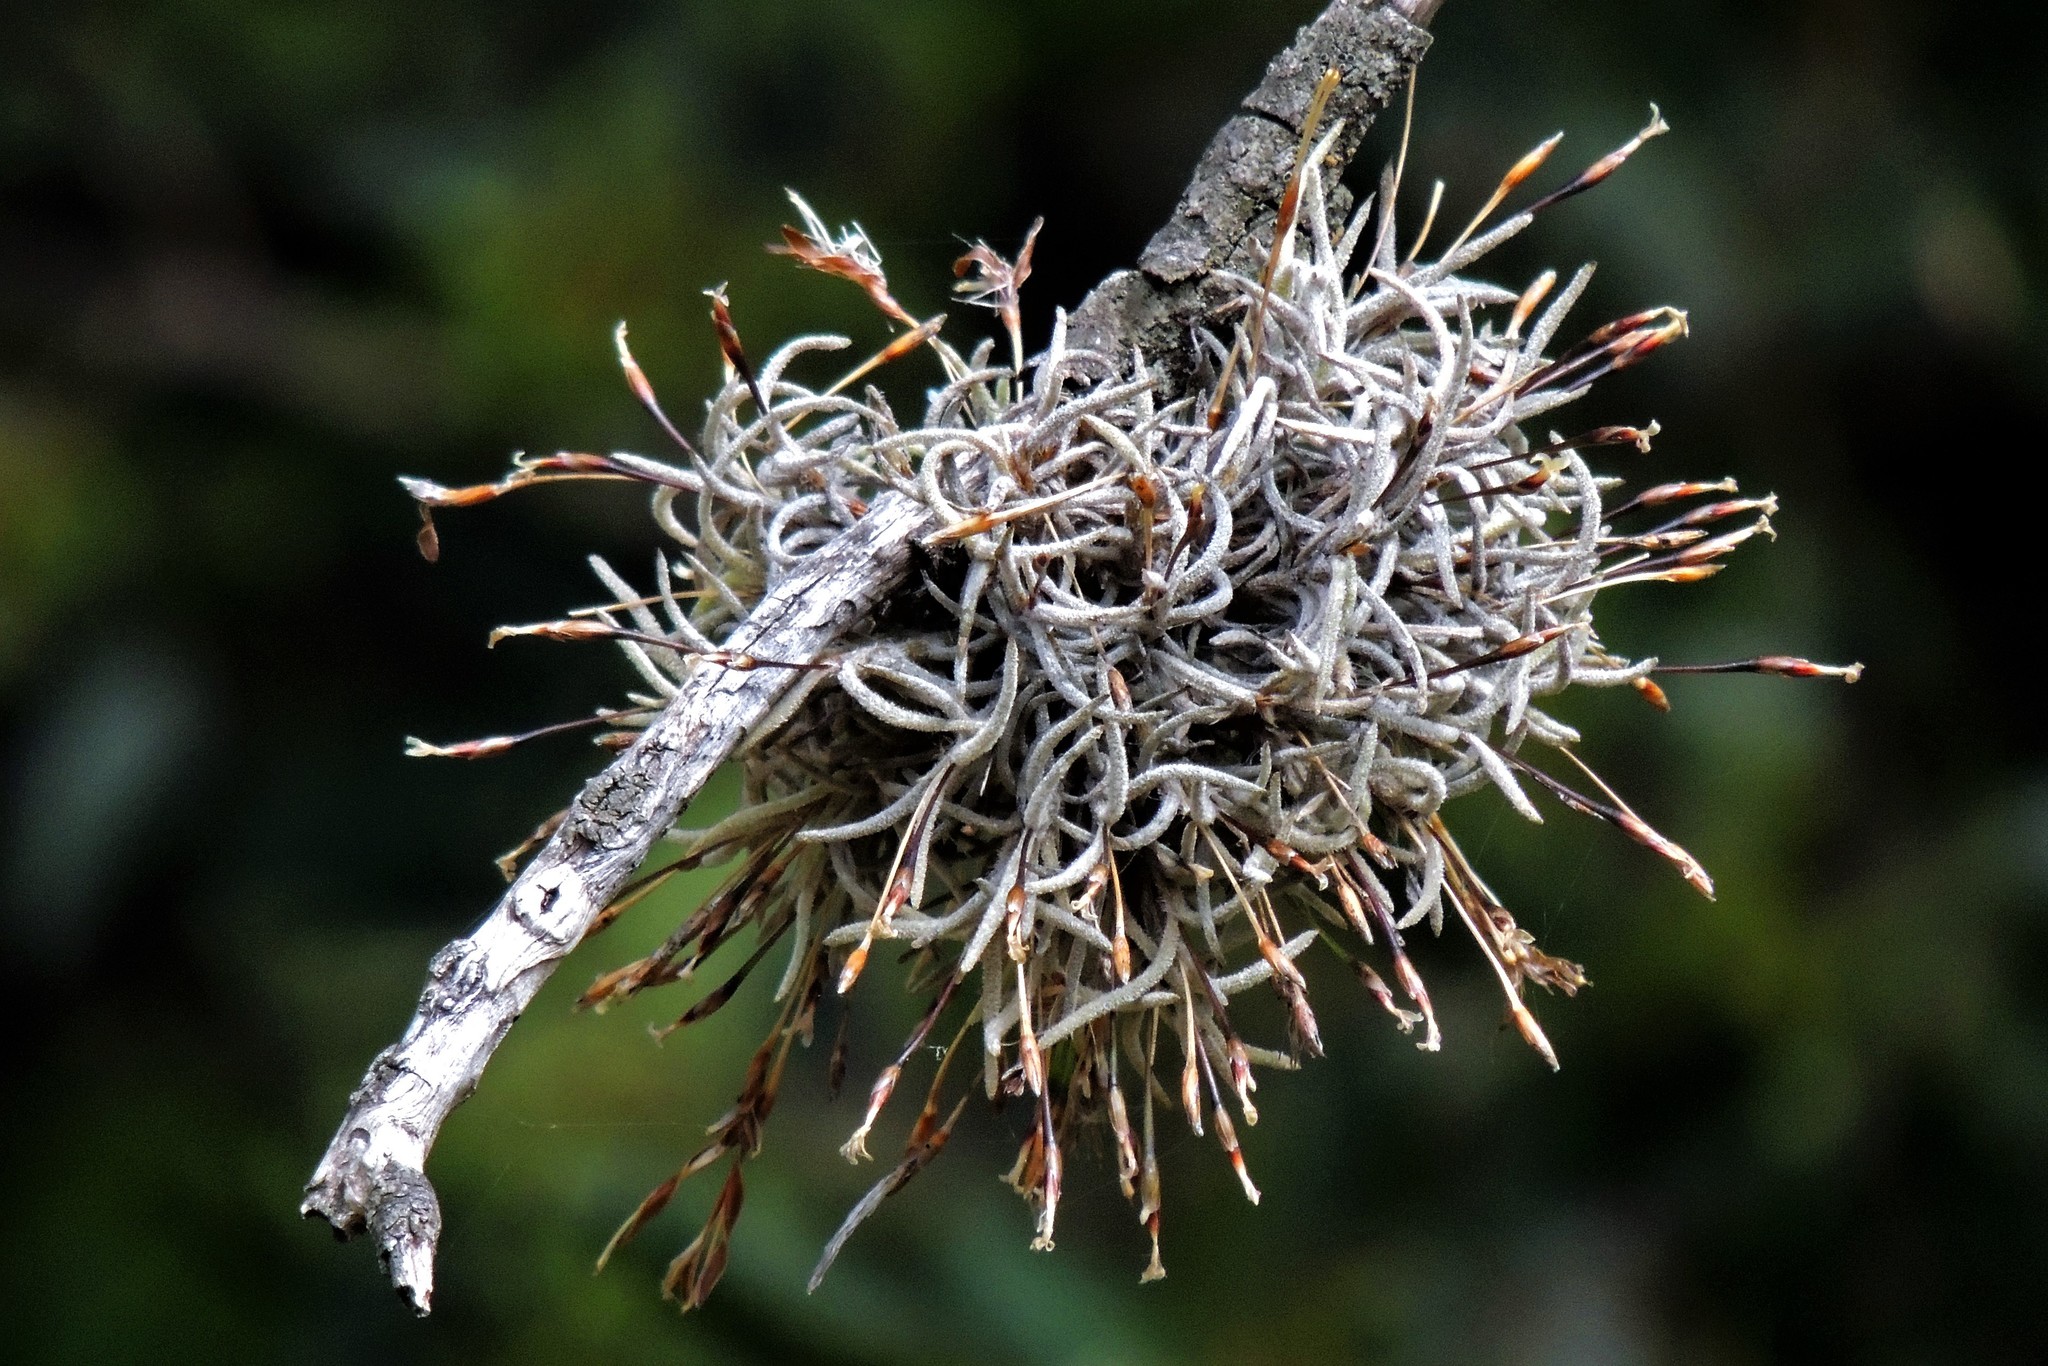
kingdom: Plantae
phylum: Tracheophyta
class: Liliopsida
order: Poales
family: Bromeliaceae
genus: Tillandsia
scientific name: Tillandsia capillaris
